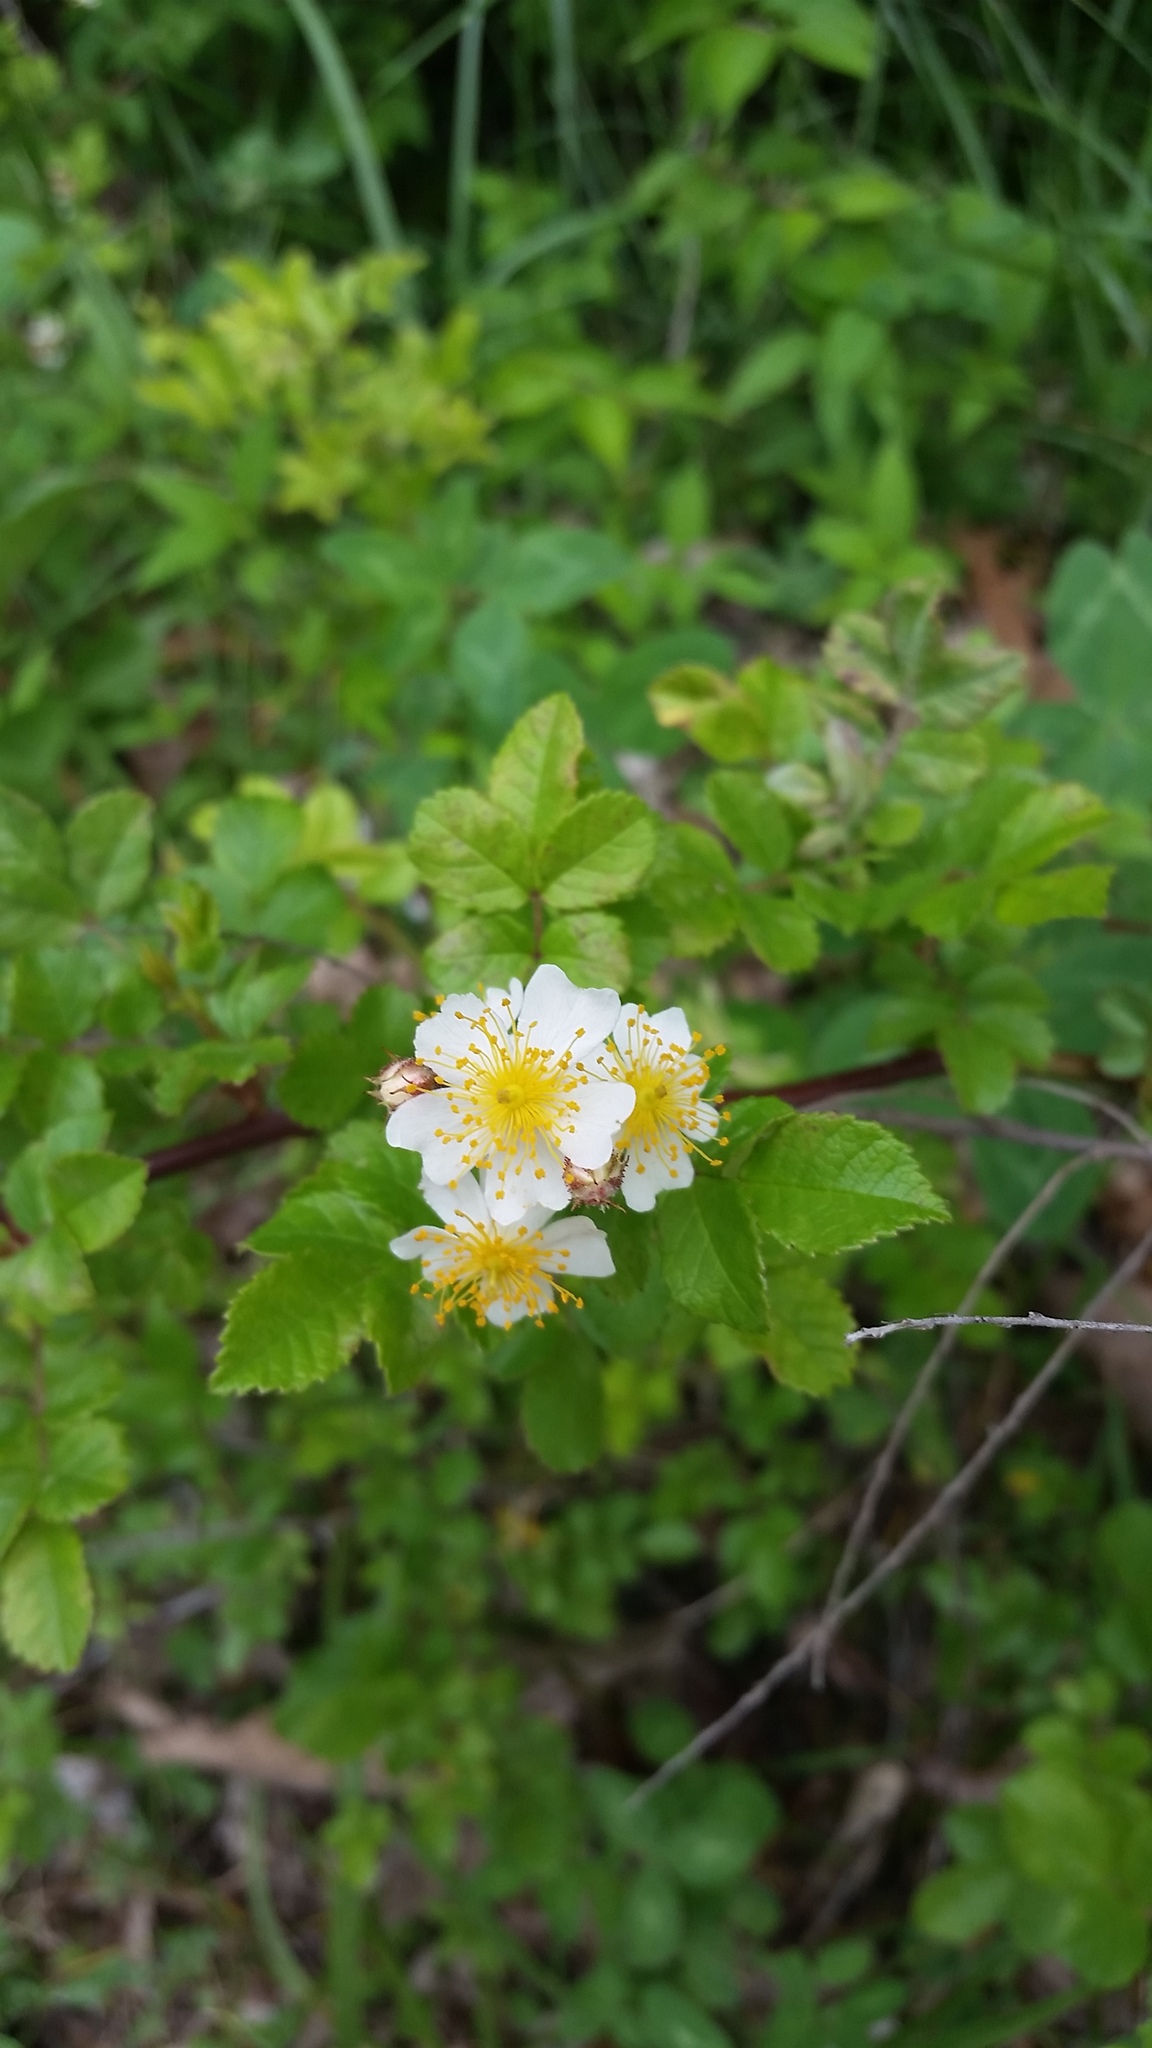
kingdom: Plantae
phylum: Tracheophyta
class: Magnoliopsida
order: Rosales
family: Rosaceae
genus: Rosa
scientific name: Rosa multiflora
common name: Multiflora rose
